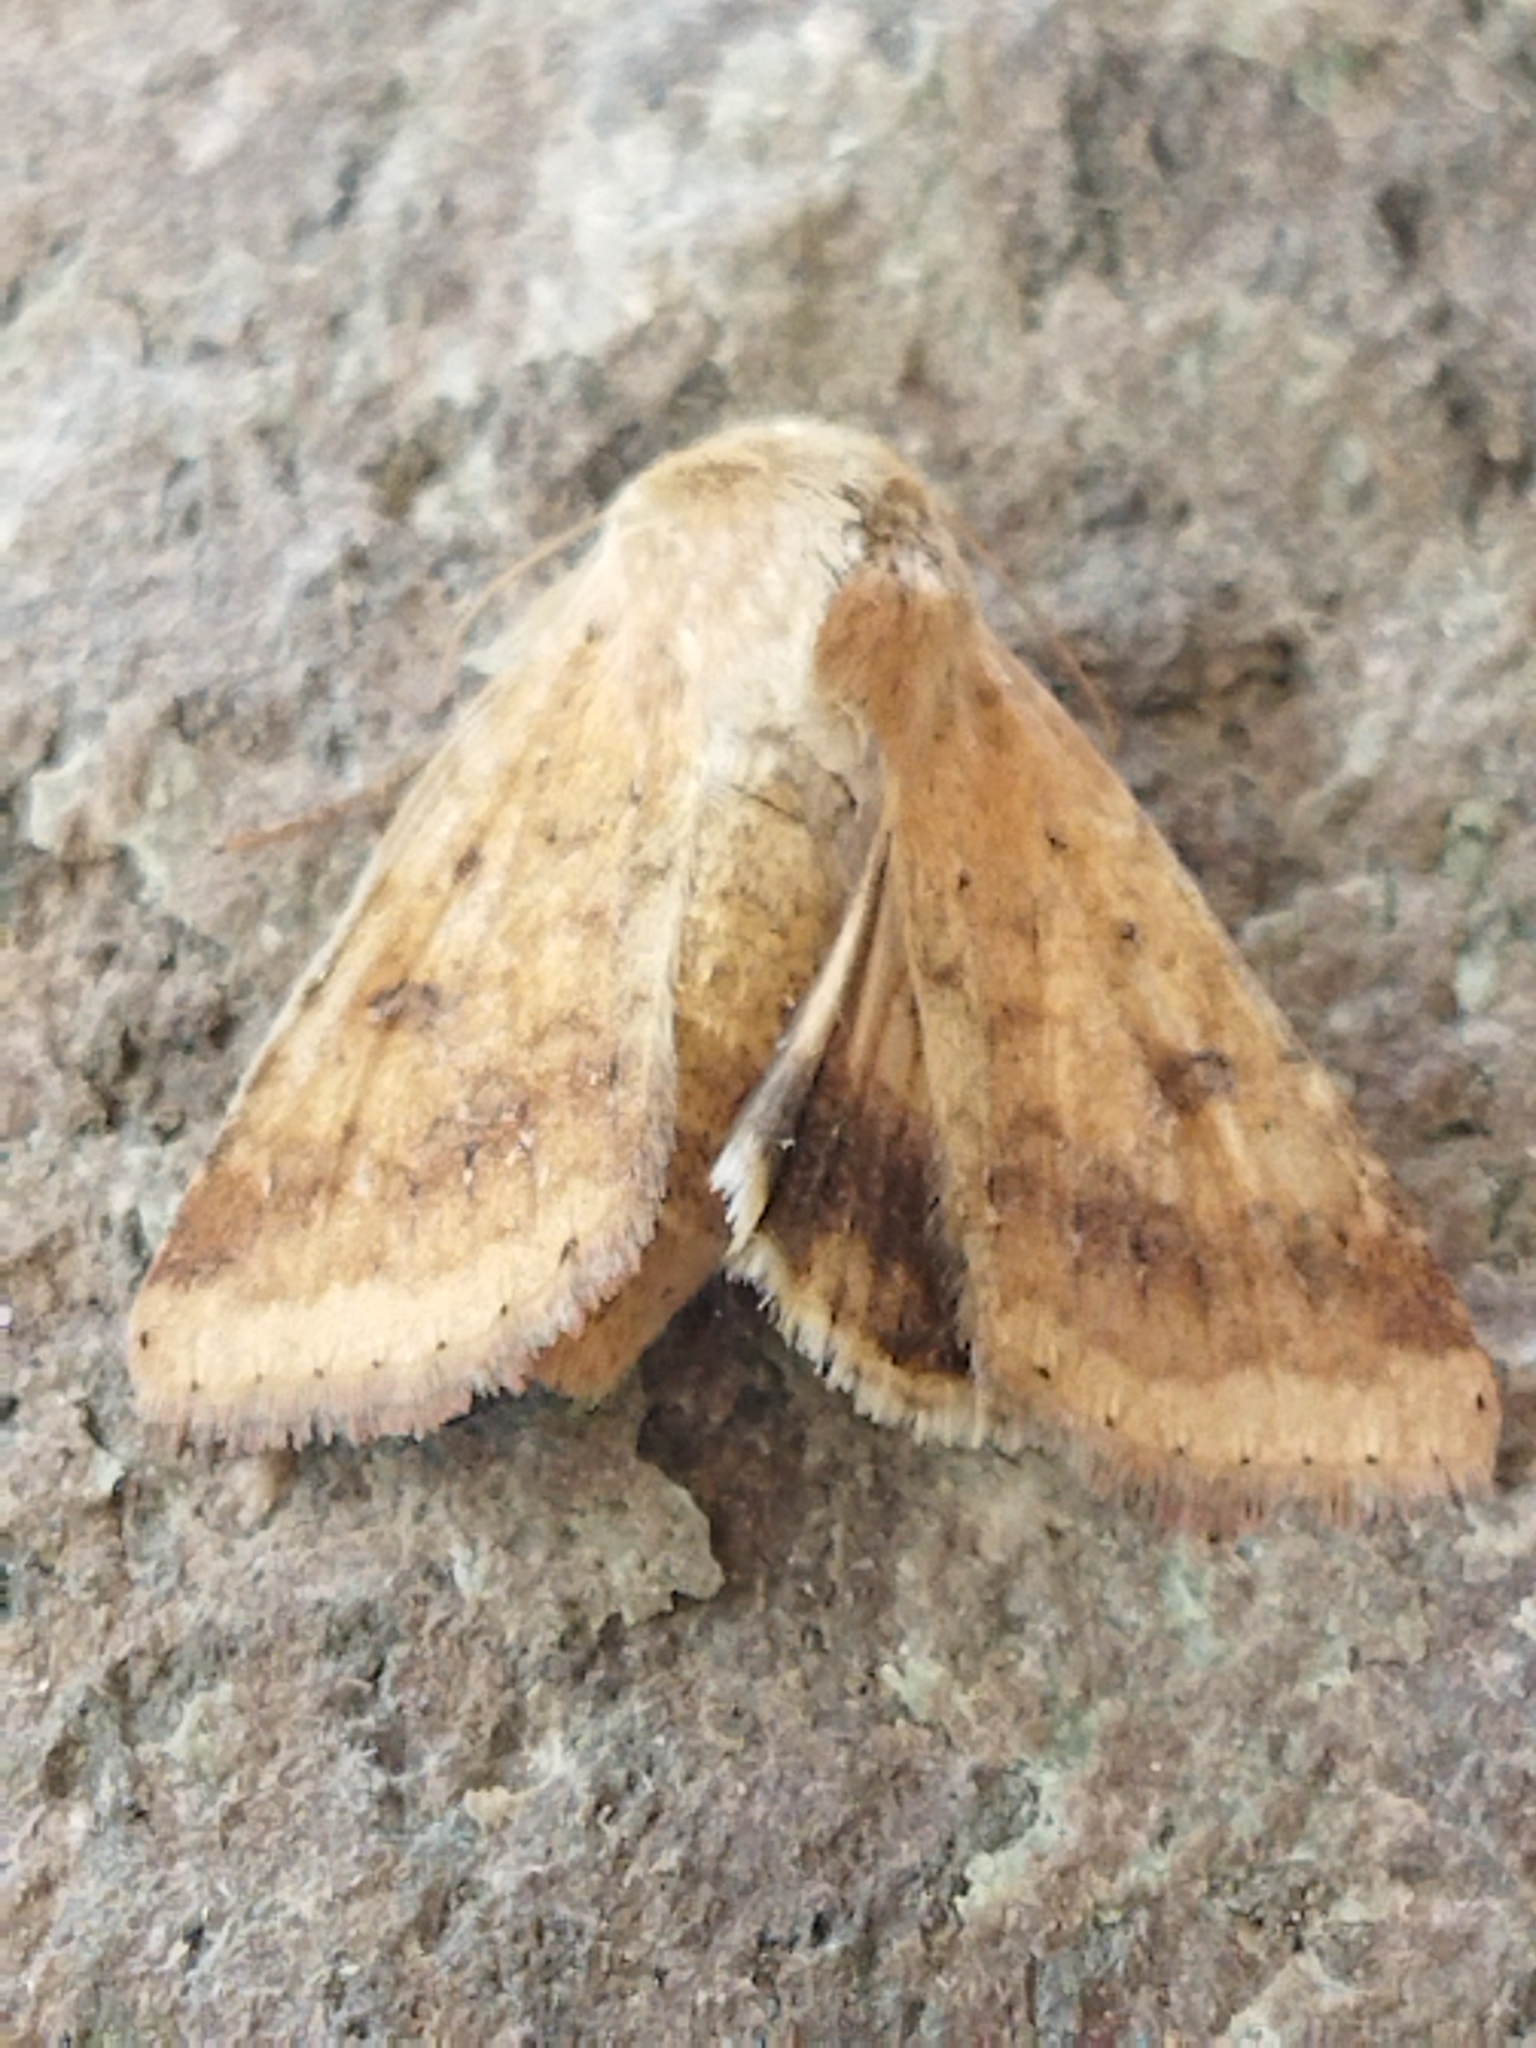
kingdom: Animalia
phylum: Arthropoda
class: Insecta
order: Lepidoptera
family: Noctuidae
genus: Helicoverpa
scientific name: Helicoverpa armigera
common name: Cotton bollworm
